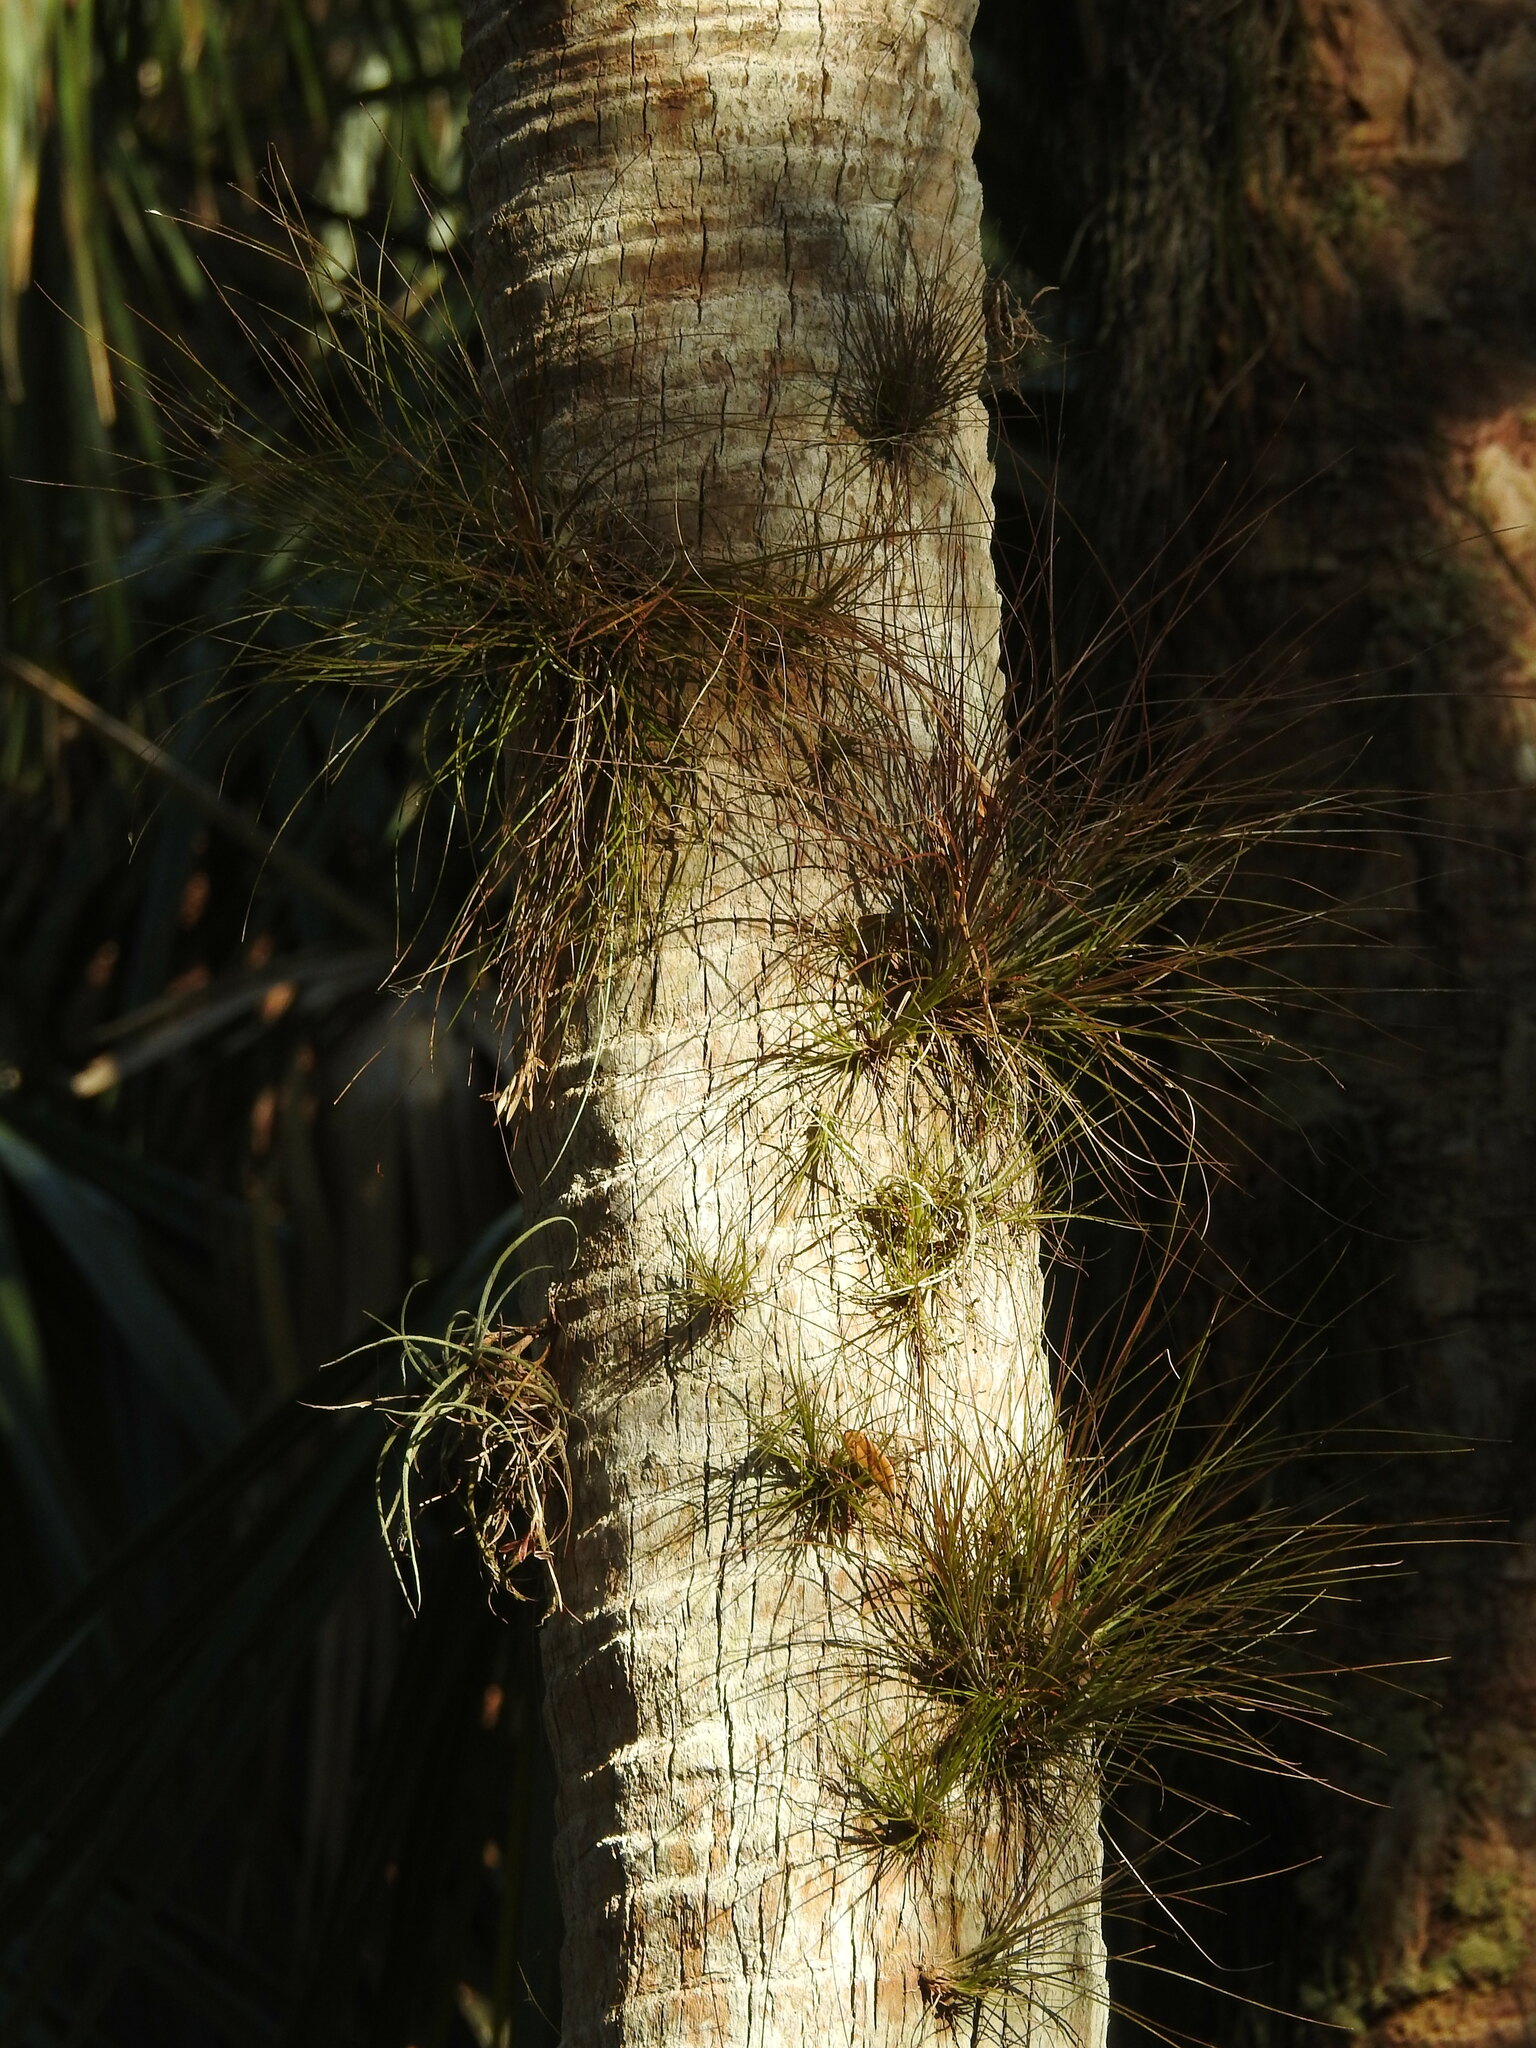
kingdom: Plantae
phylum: Tracheophyta
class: Liliopsida
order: Poales
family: Bromeliaceae
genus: Tillandsia
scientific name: Tillandsia setacea
